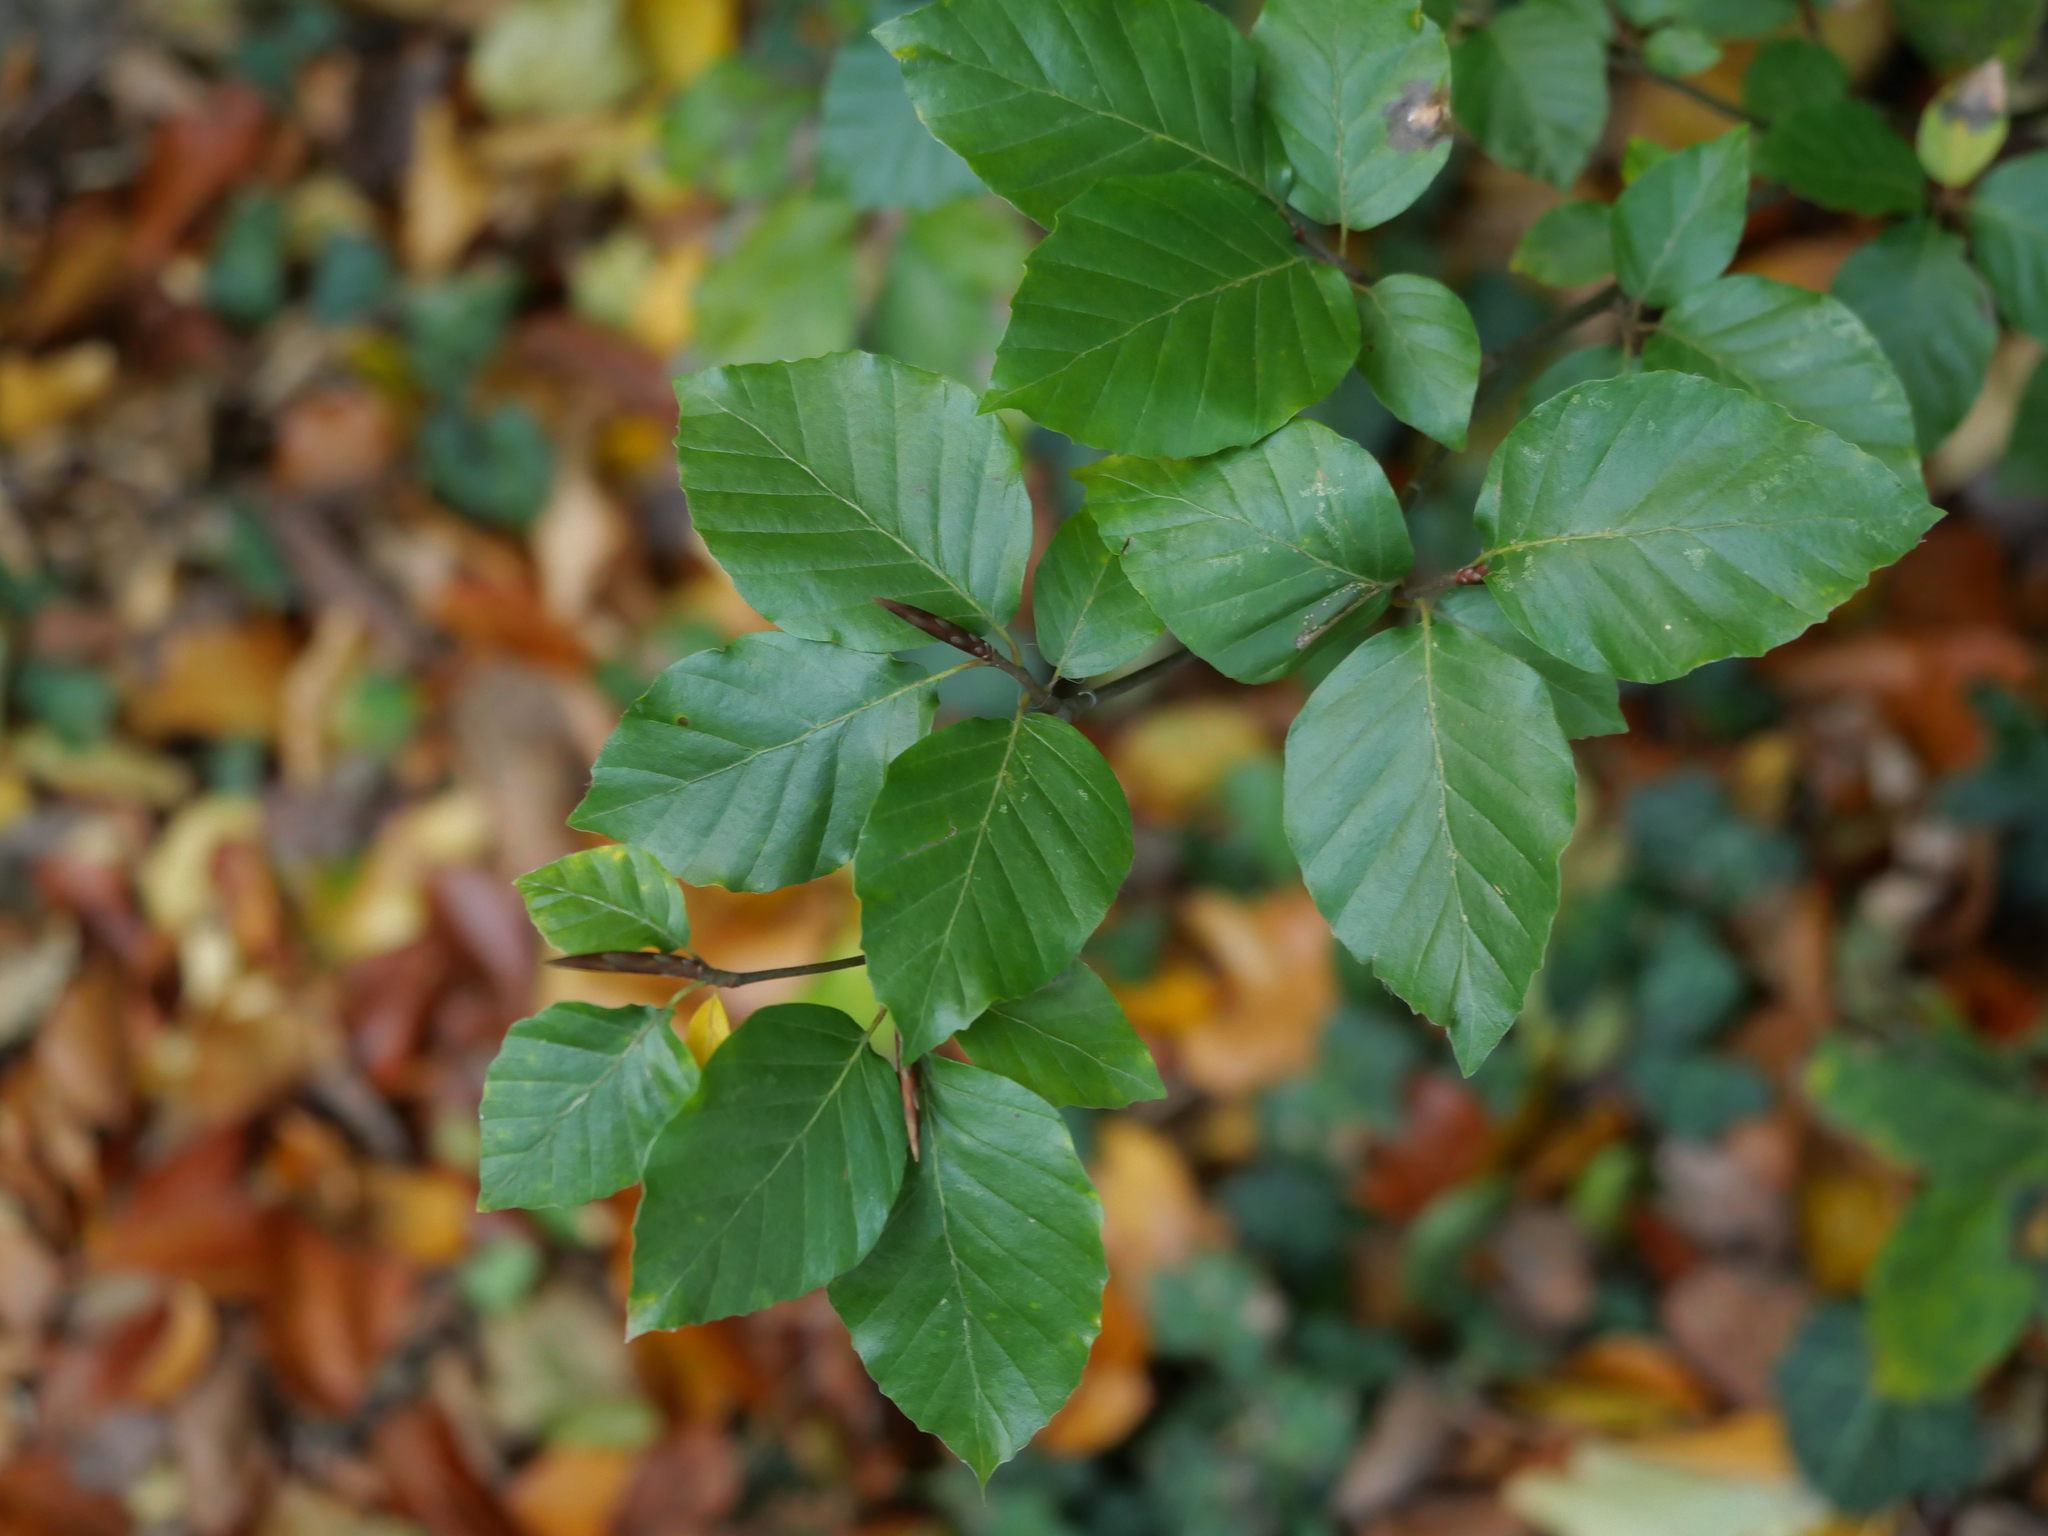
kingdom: Plantae
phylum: Tracheophyta
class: Magnoliopsida
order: Fagales
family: Fagaceae
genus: Fagus
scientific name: Fagus sylvatica
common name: Beech
